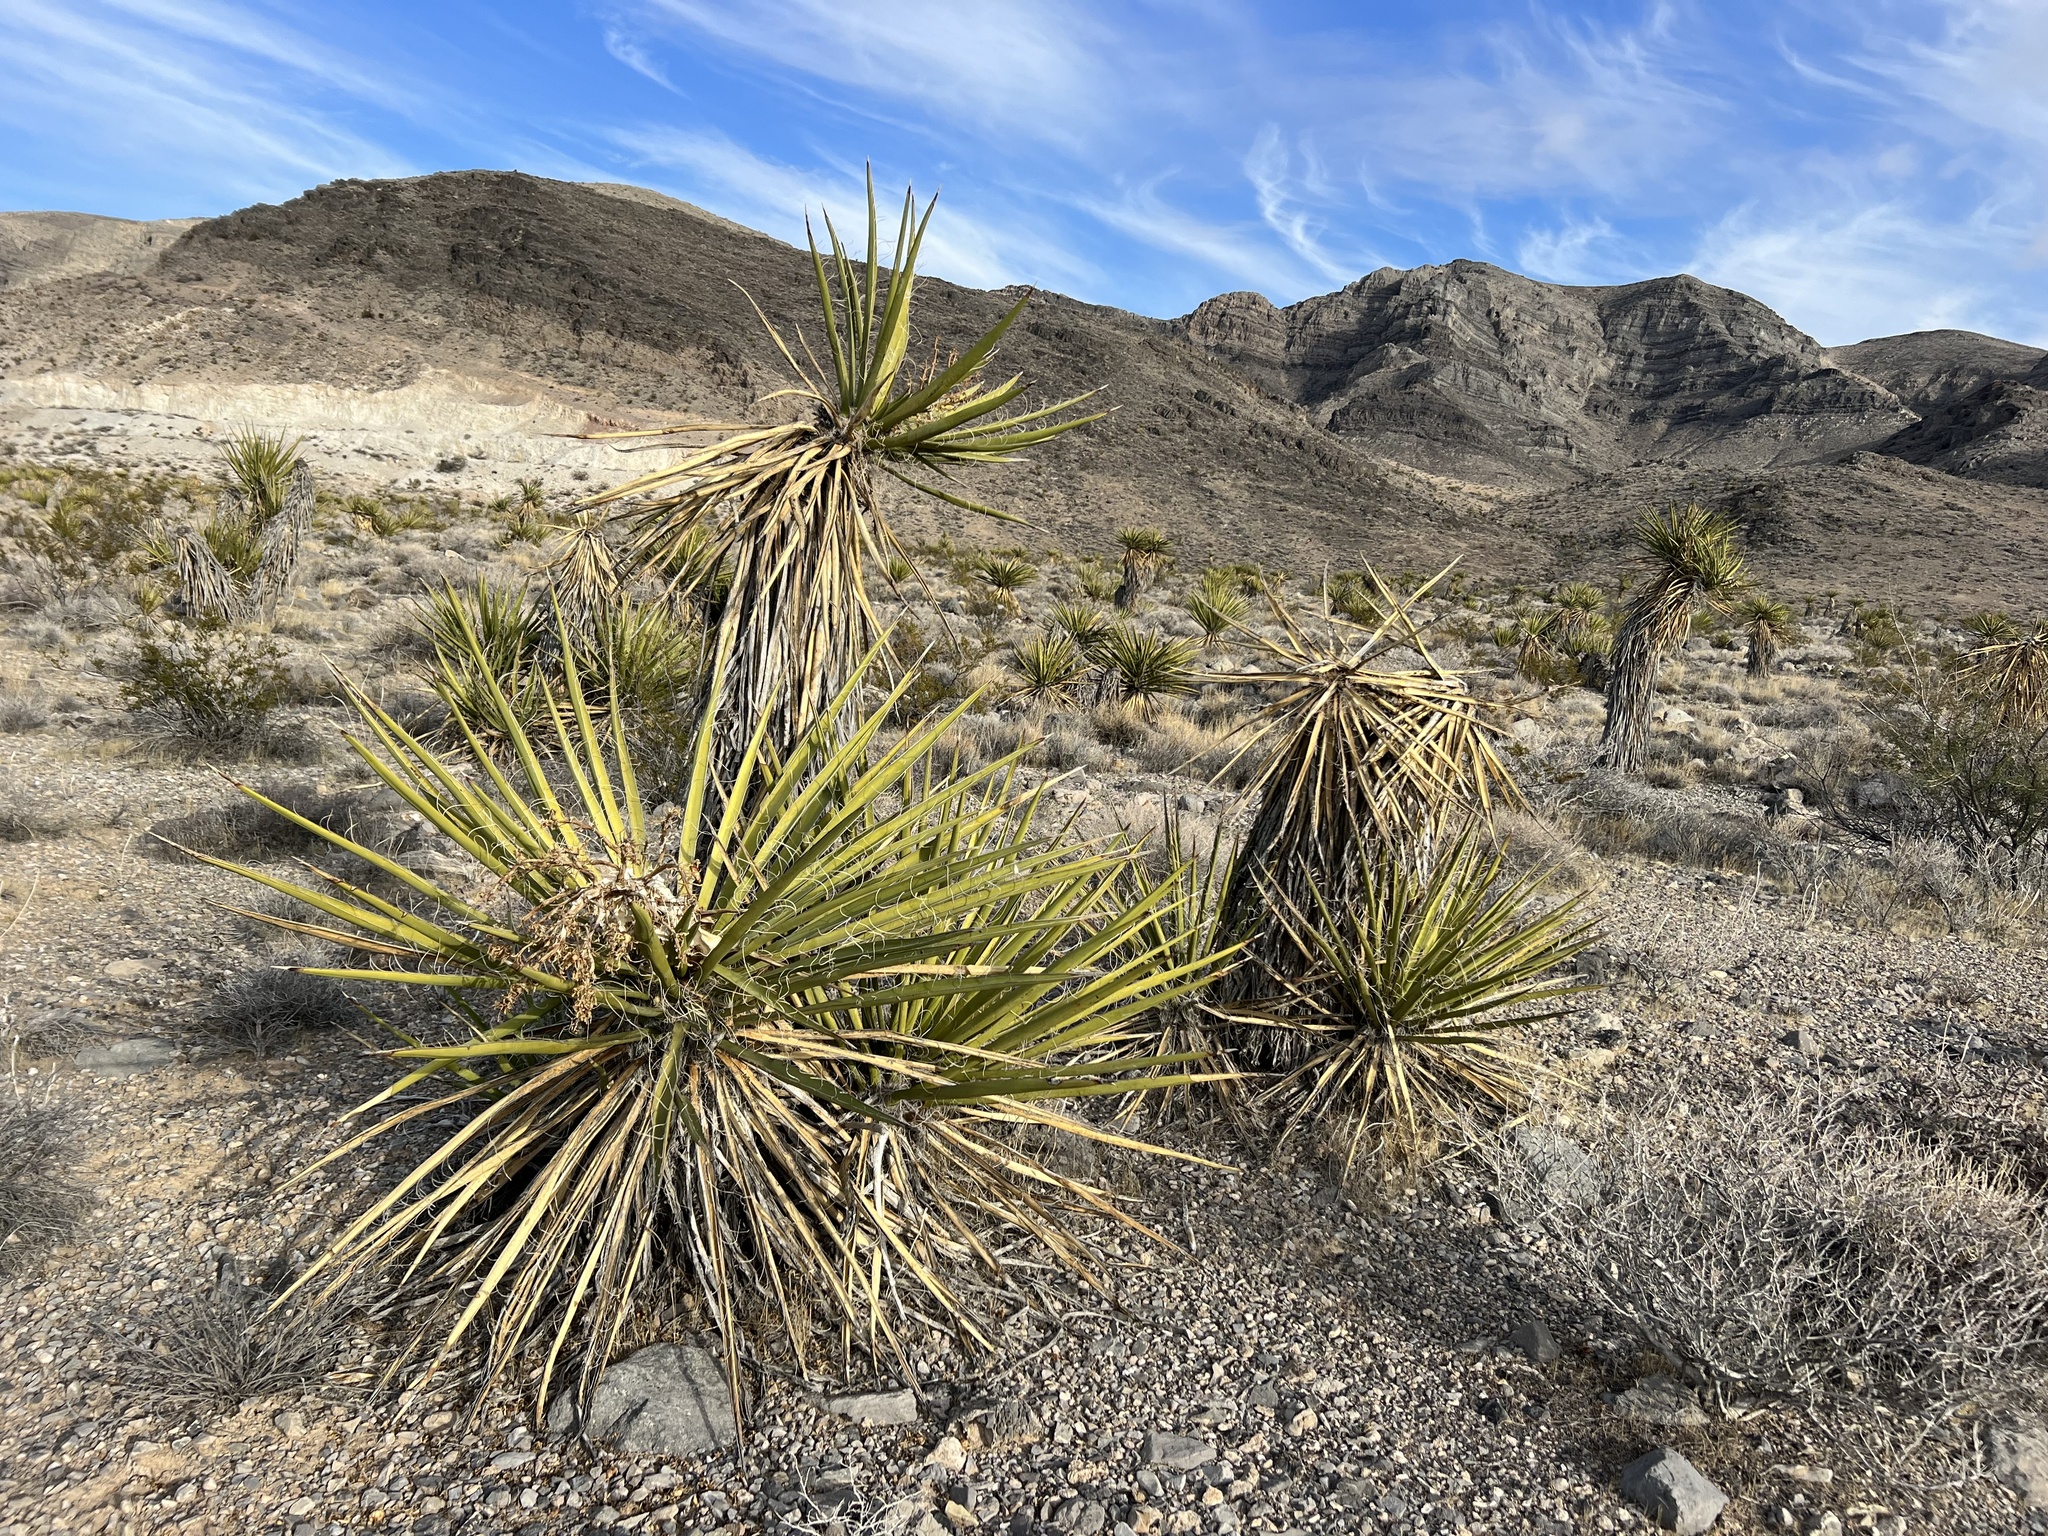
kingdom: Plantae
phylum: Tracheophyta
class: Liliopsida
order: Asparagales
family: Asparagaceae
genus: Yucca
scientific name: Yucca schidigera
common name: Mojave yucca
